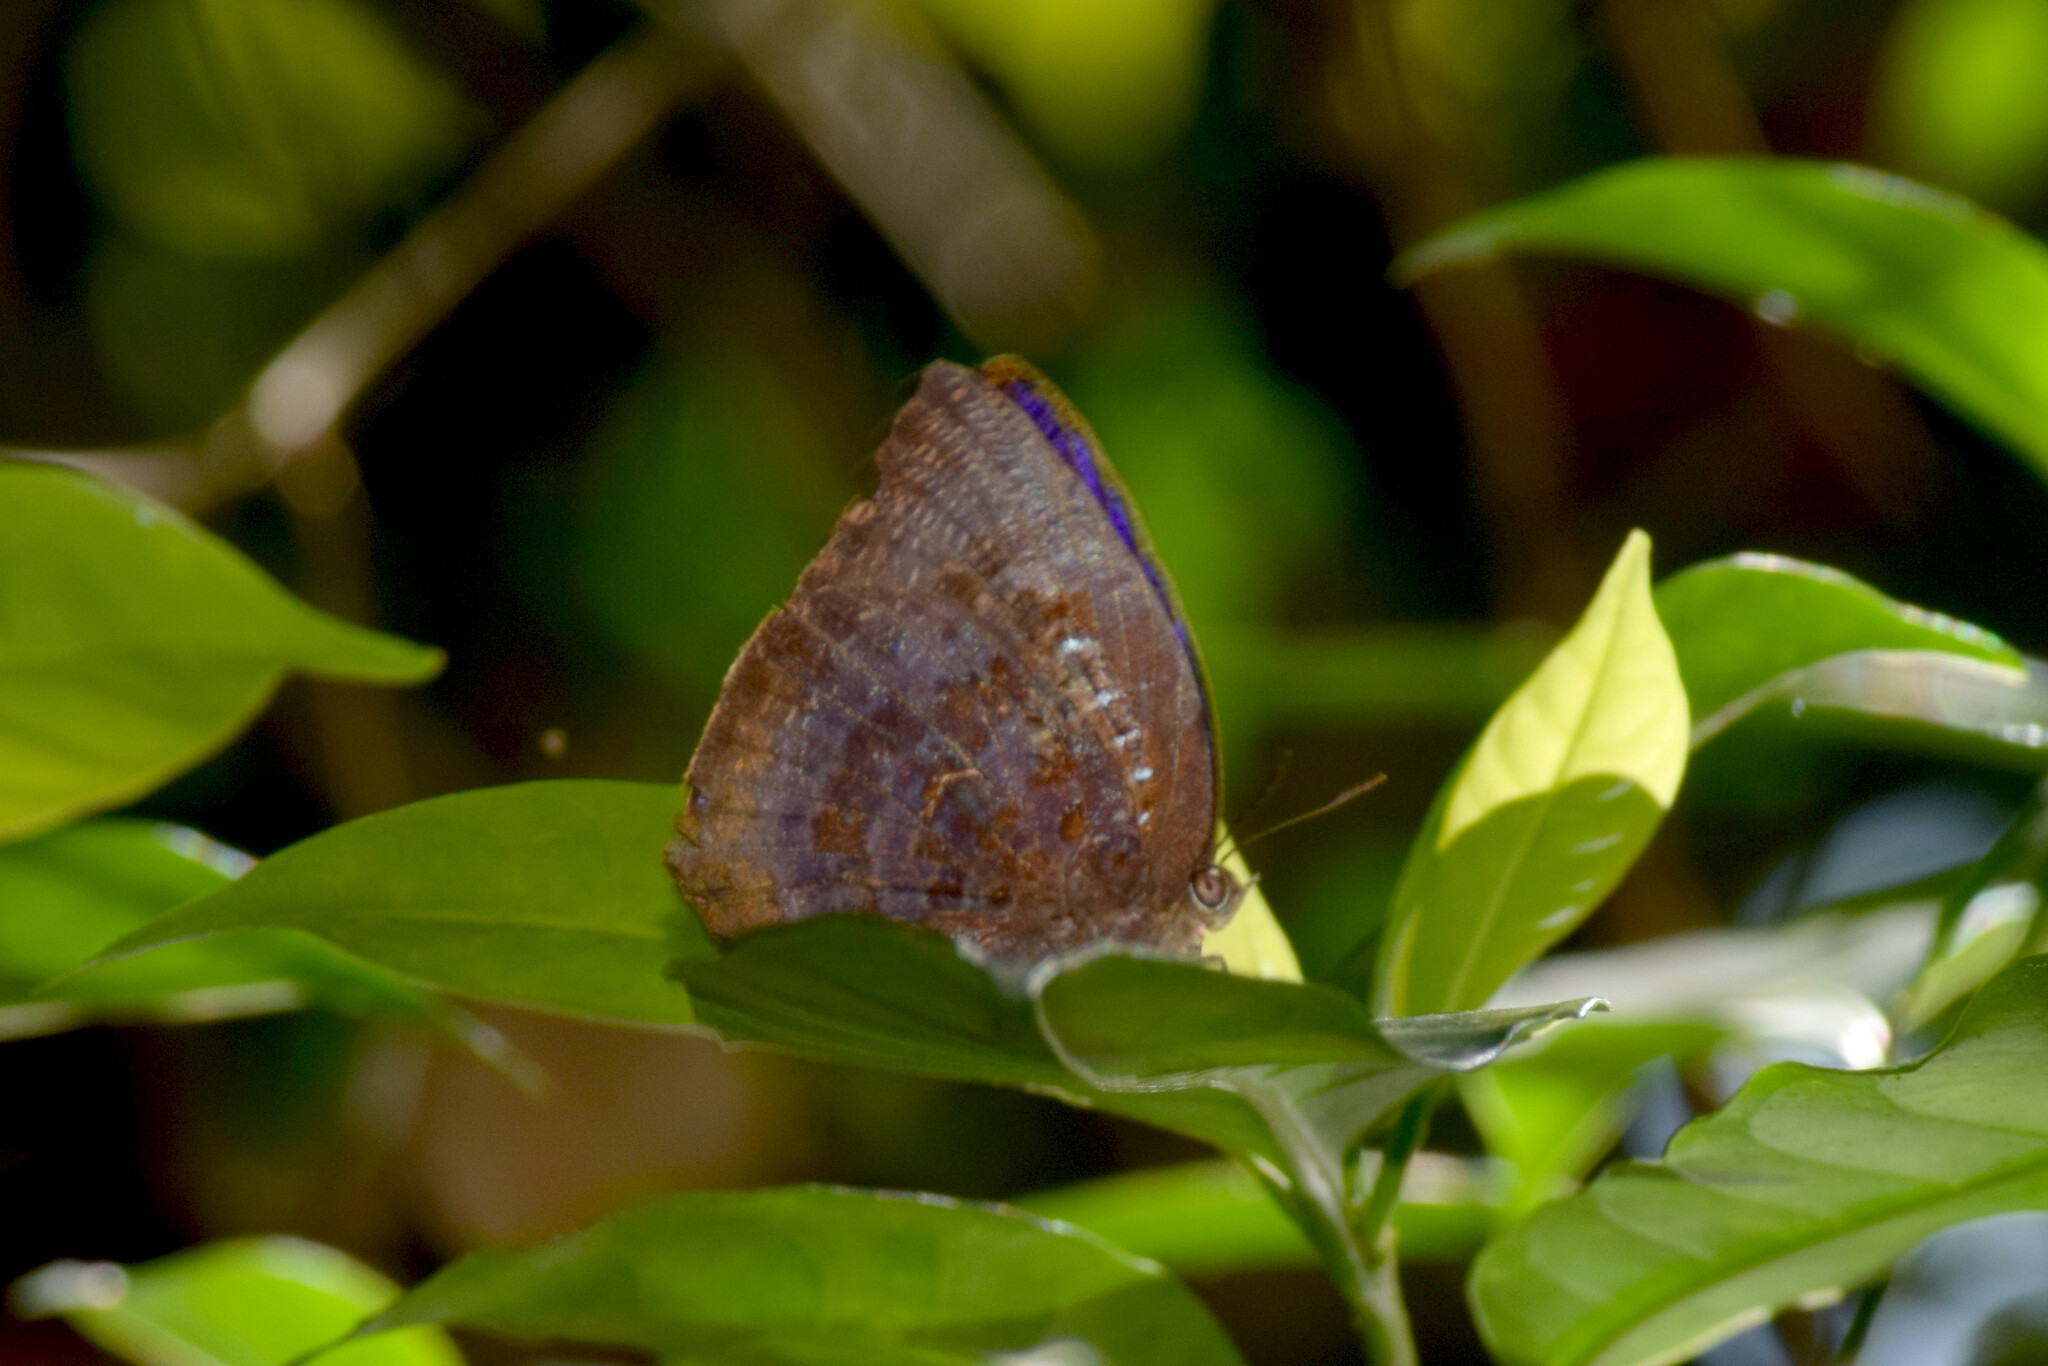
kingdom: Animalia
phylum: Arthropoda
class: Insecta
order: Lepidoptera
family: Lycaenidae
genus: Arhopala
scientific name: Arhopala centaurus
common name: Dull oak-blue
